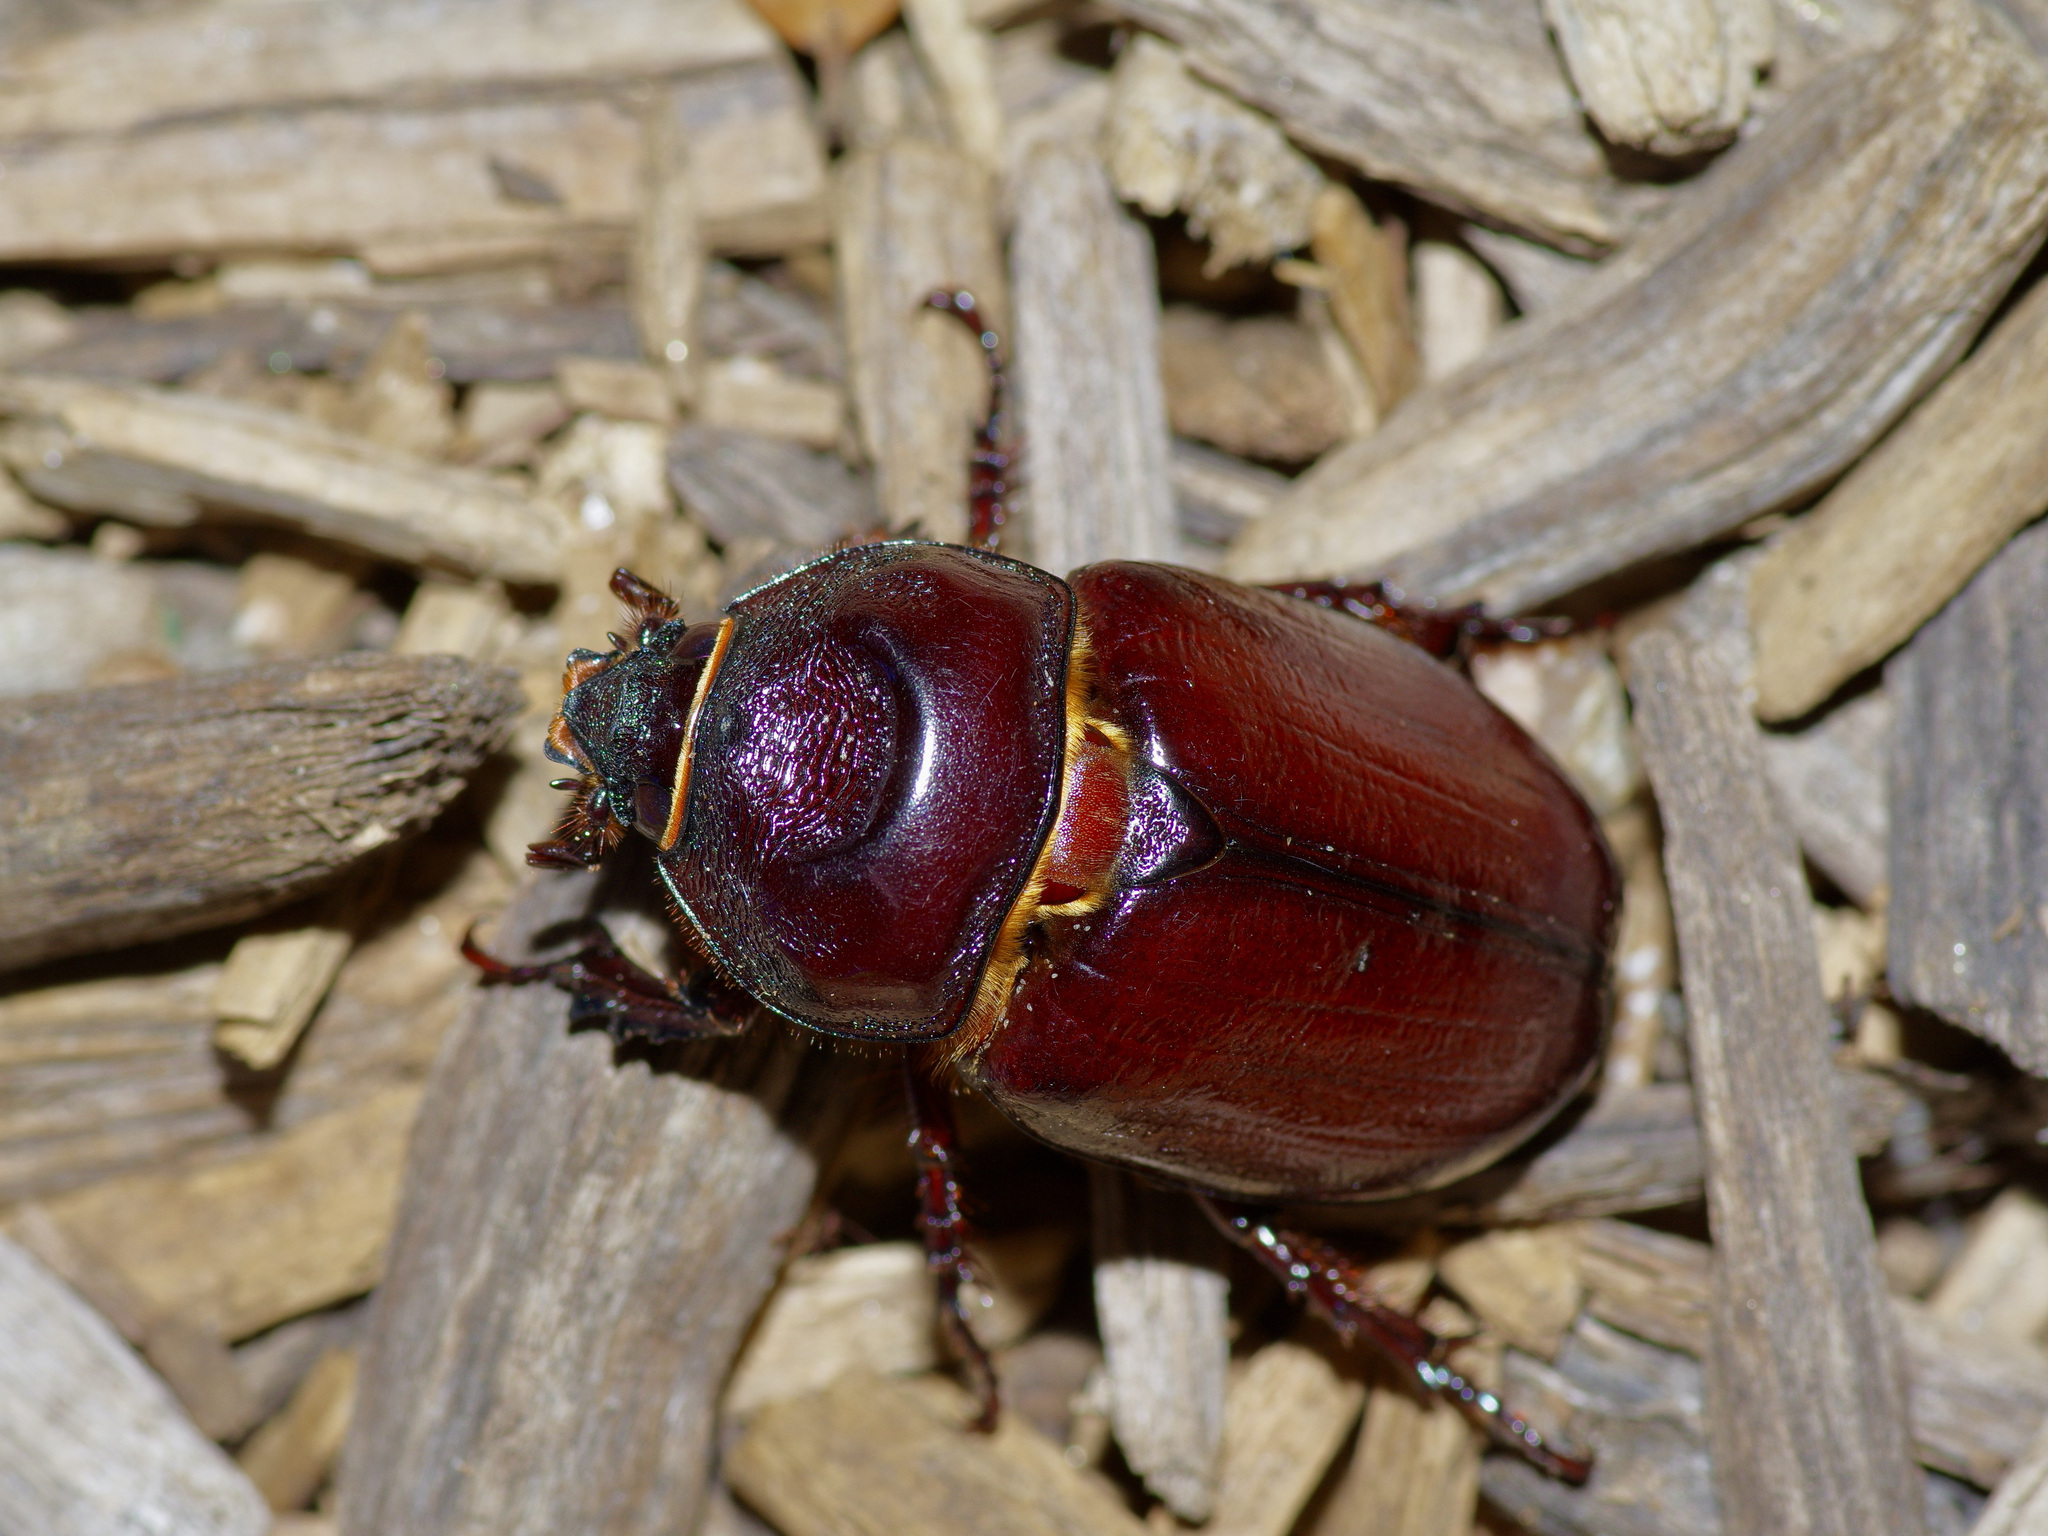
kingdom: Animalia
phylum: Arthropoda
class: Insecta
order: Coleoptera
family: Scarabaeidae
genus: Strategus
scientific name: Strategus aloeus
